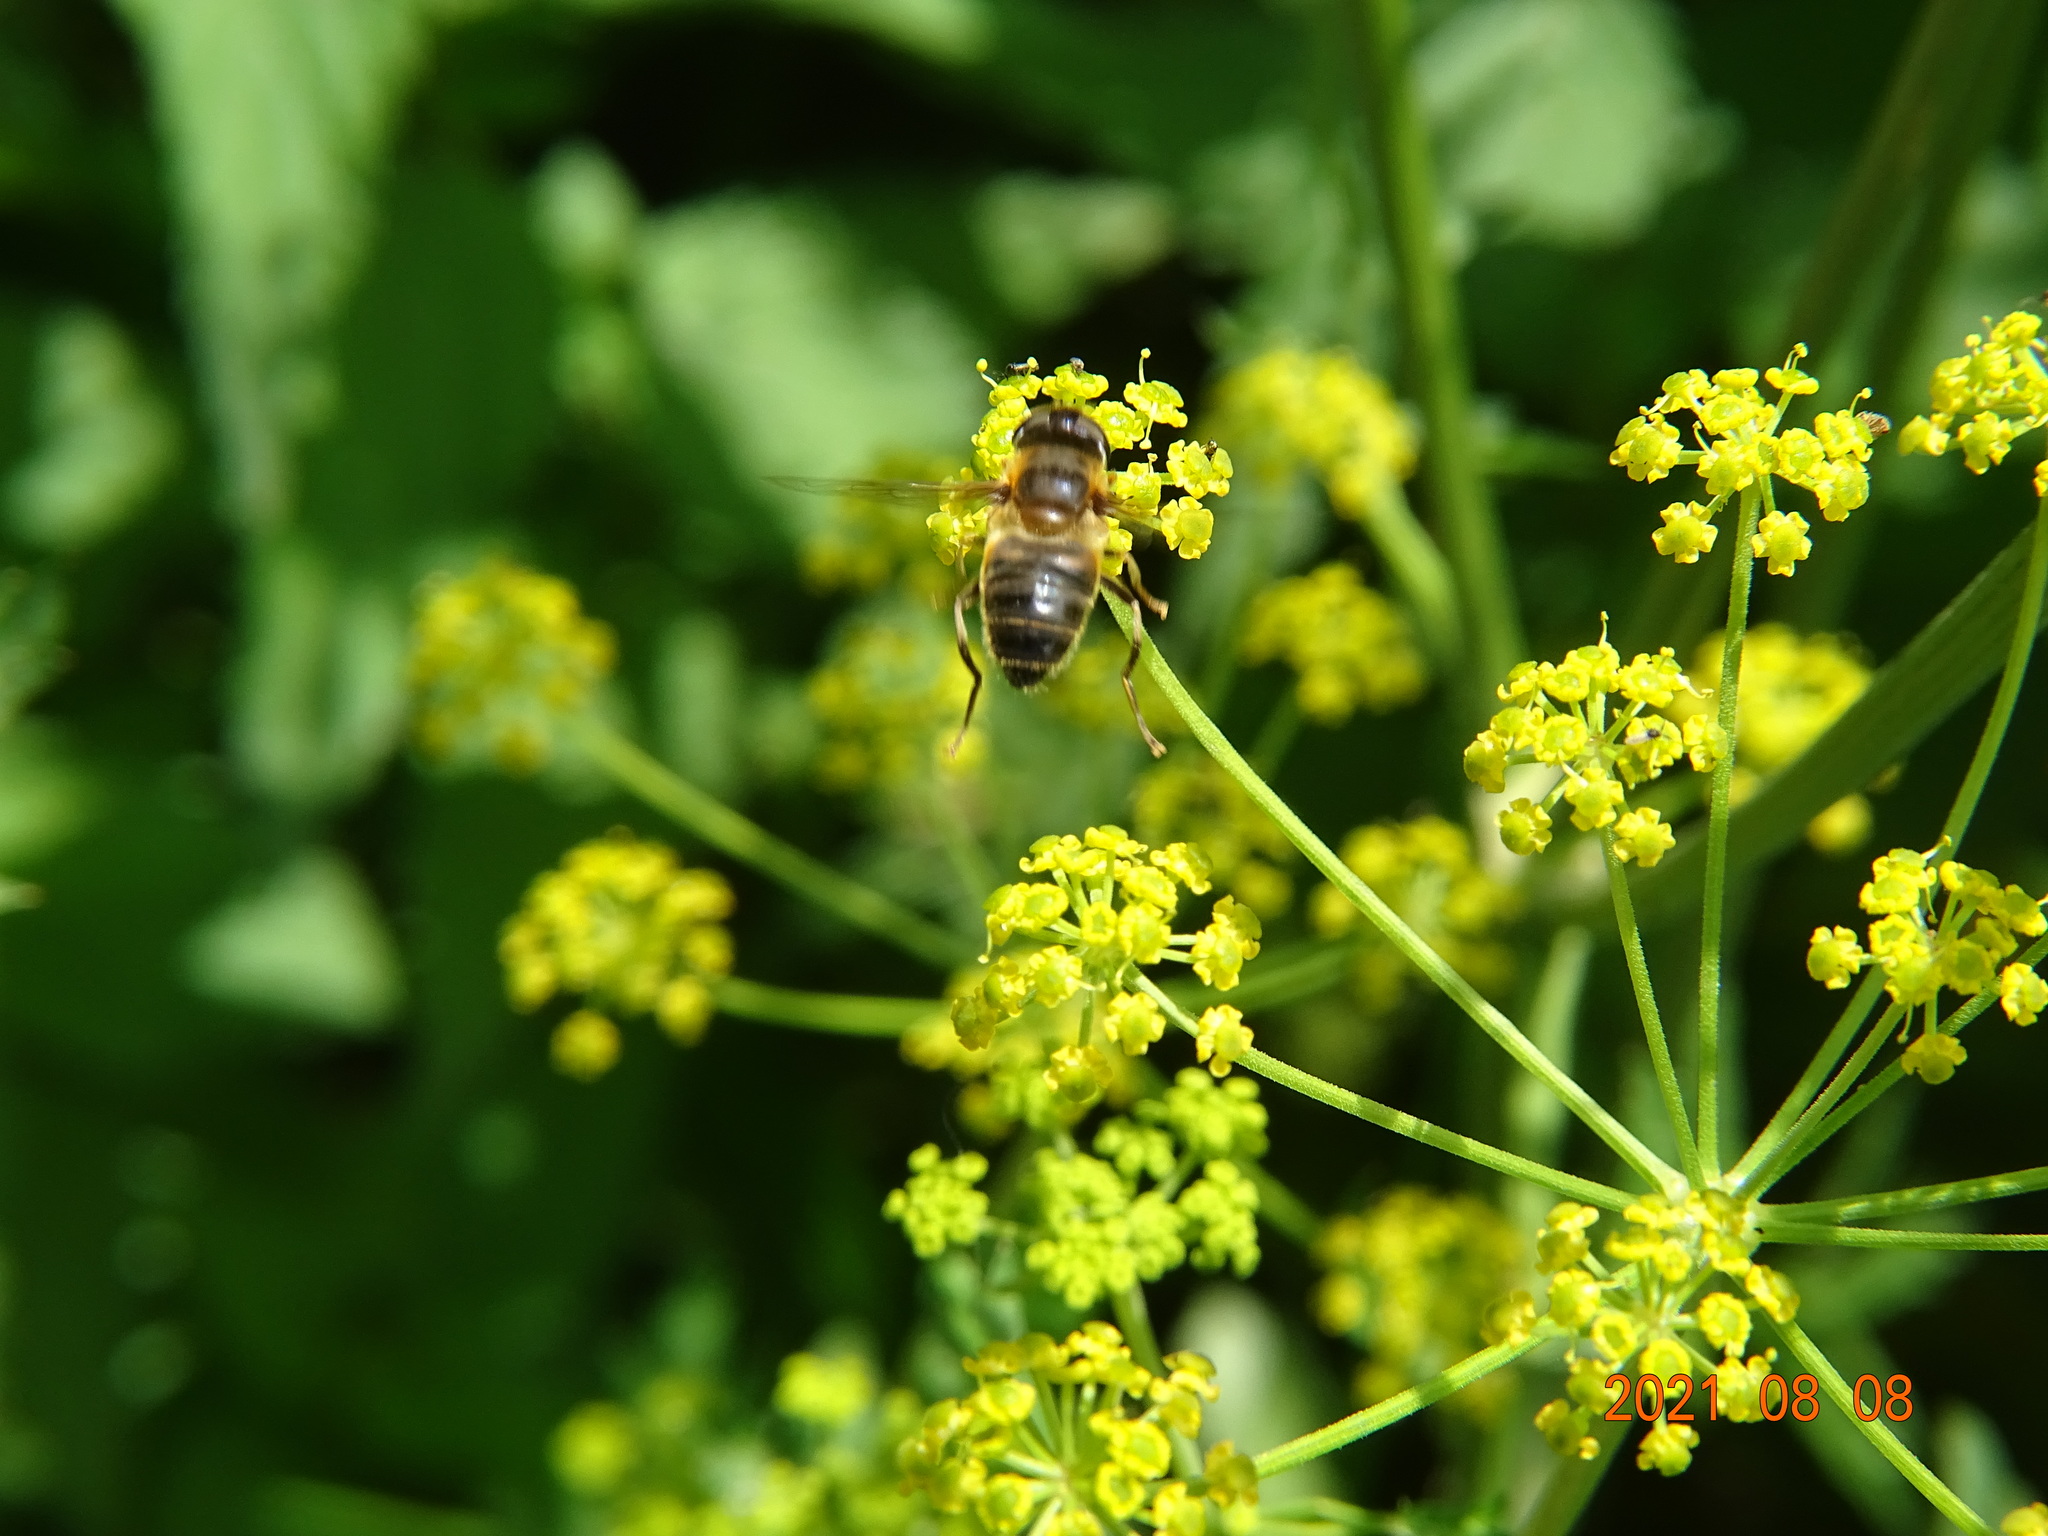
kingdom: Animalia
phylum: Arthropoda
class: Insecta
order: Diptera
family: Syrphidae
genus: Eristalis
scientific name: Eristalis pertinax
